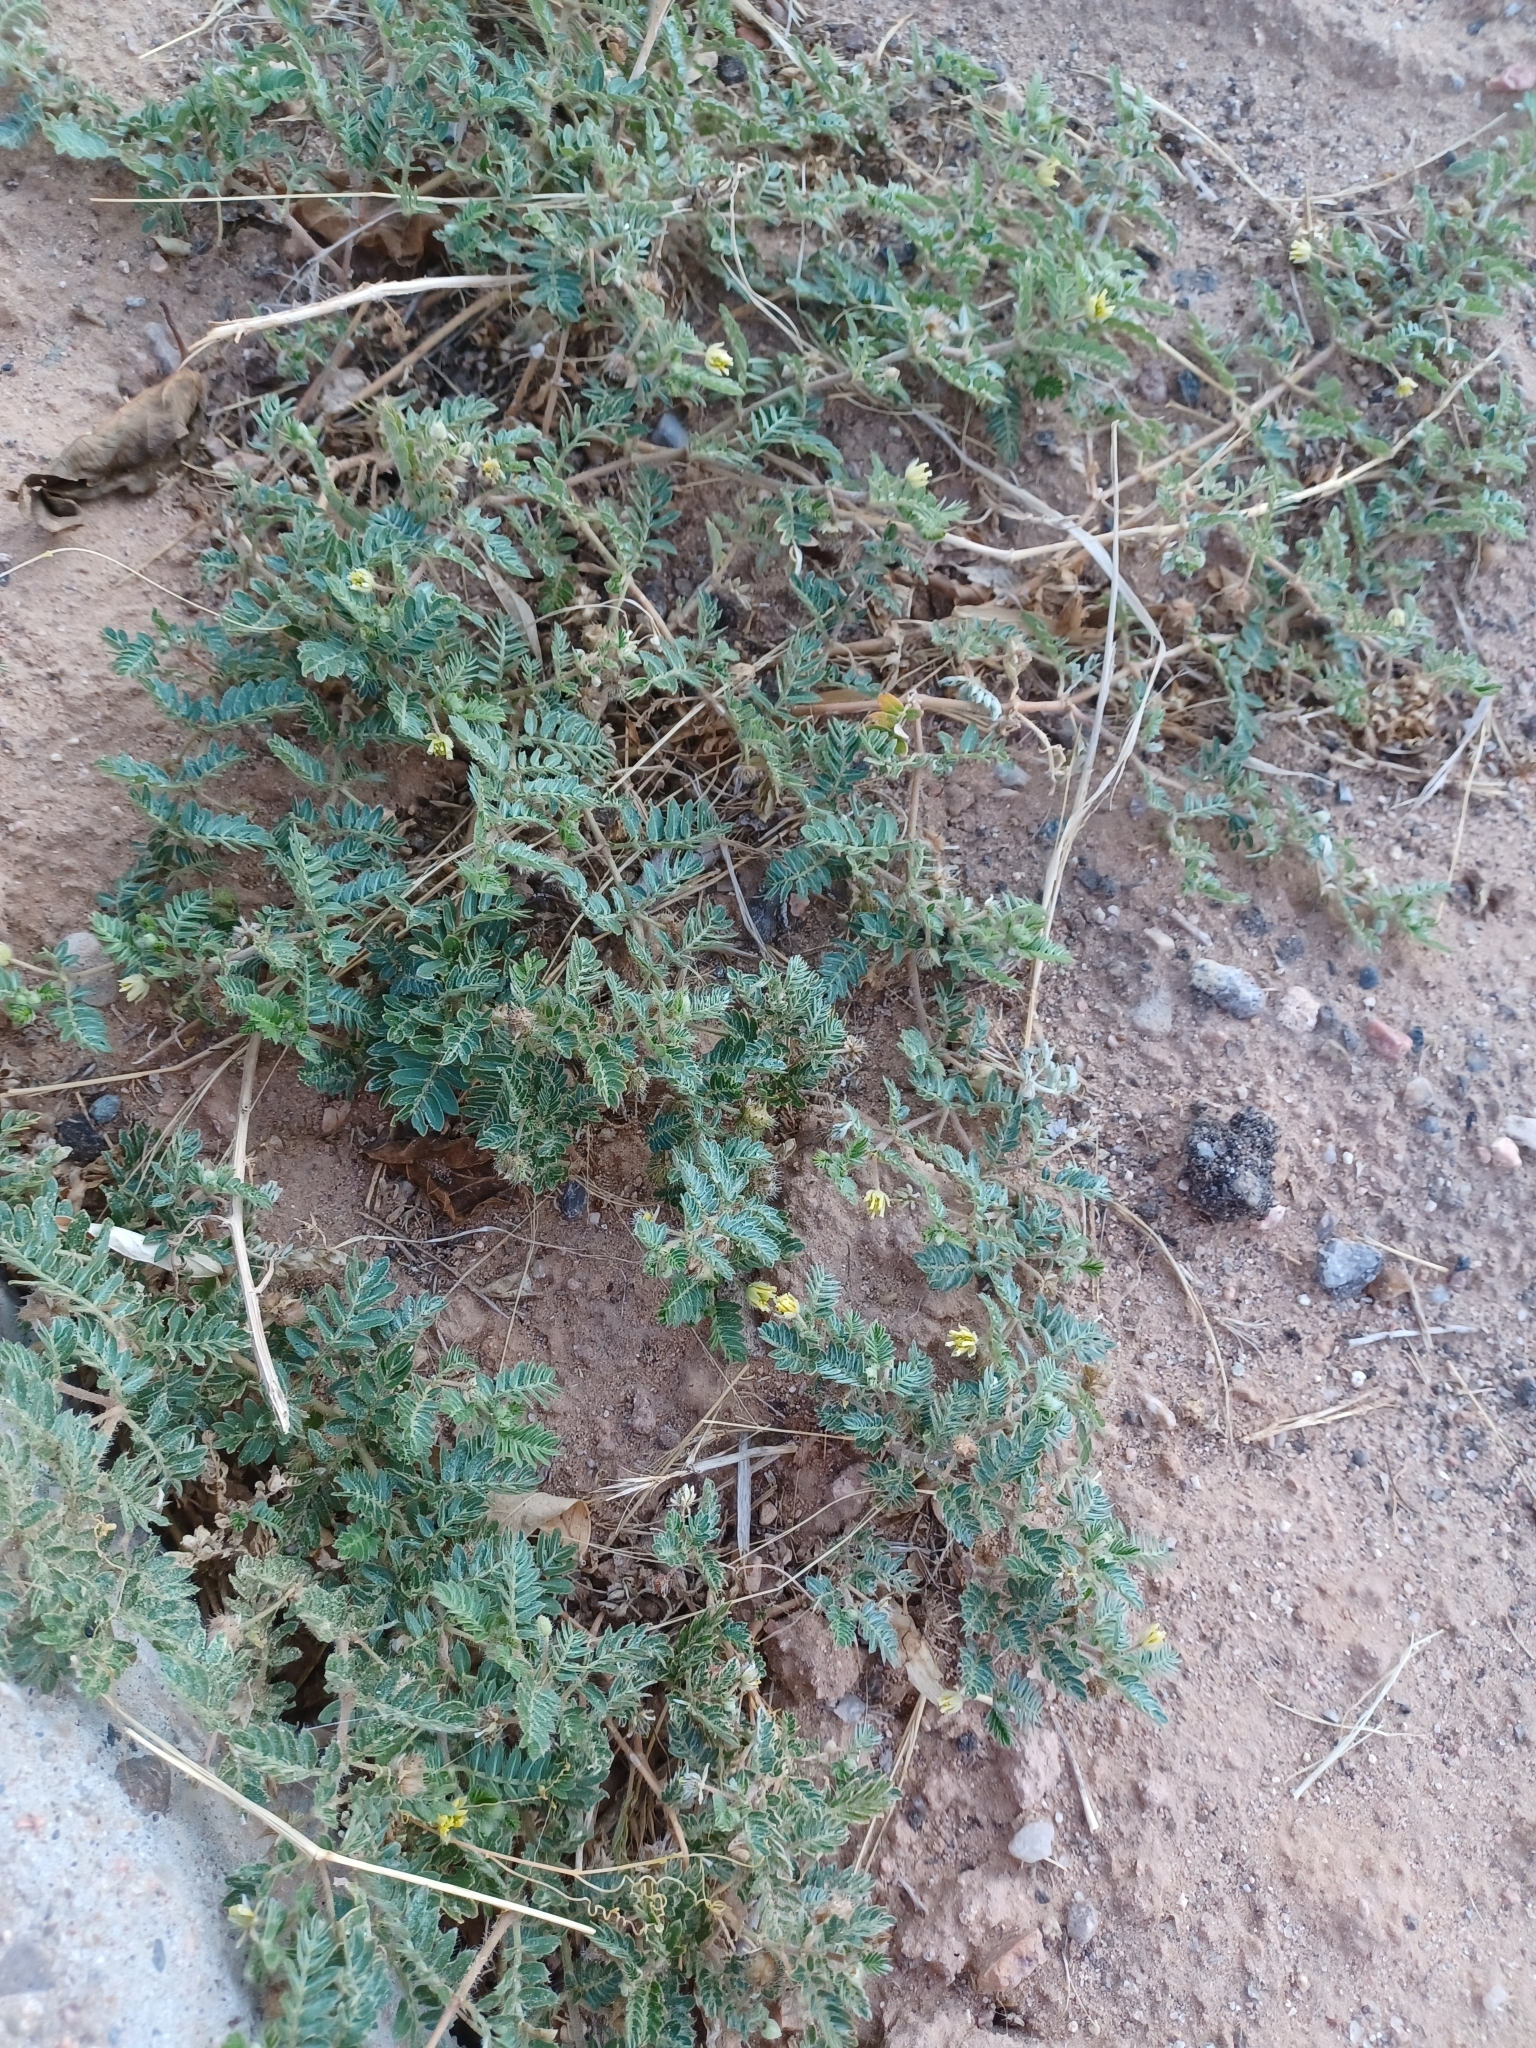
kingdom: Plantae
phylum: Tracheophyta
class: Magnoliopsida
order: Zygophyllales
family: Zygophyllaceae
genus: Tribulus
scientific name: Tribulus terrestris
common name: Puncturevine
